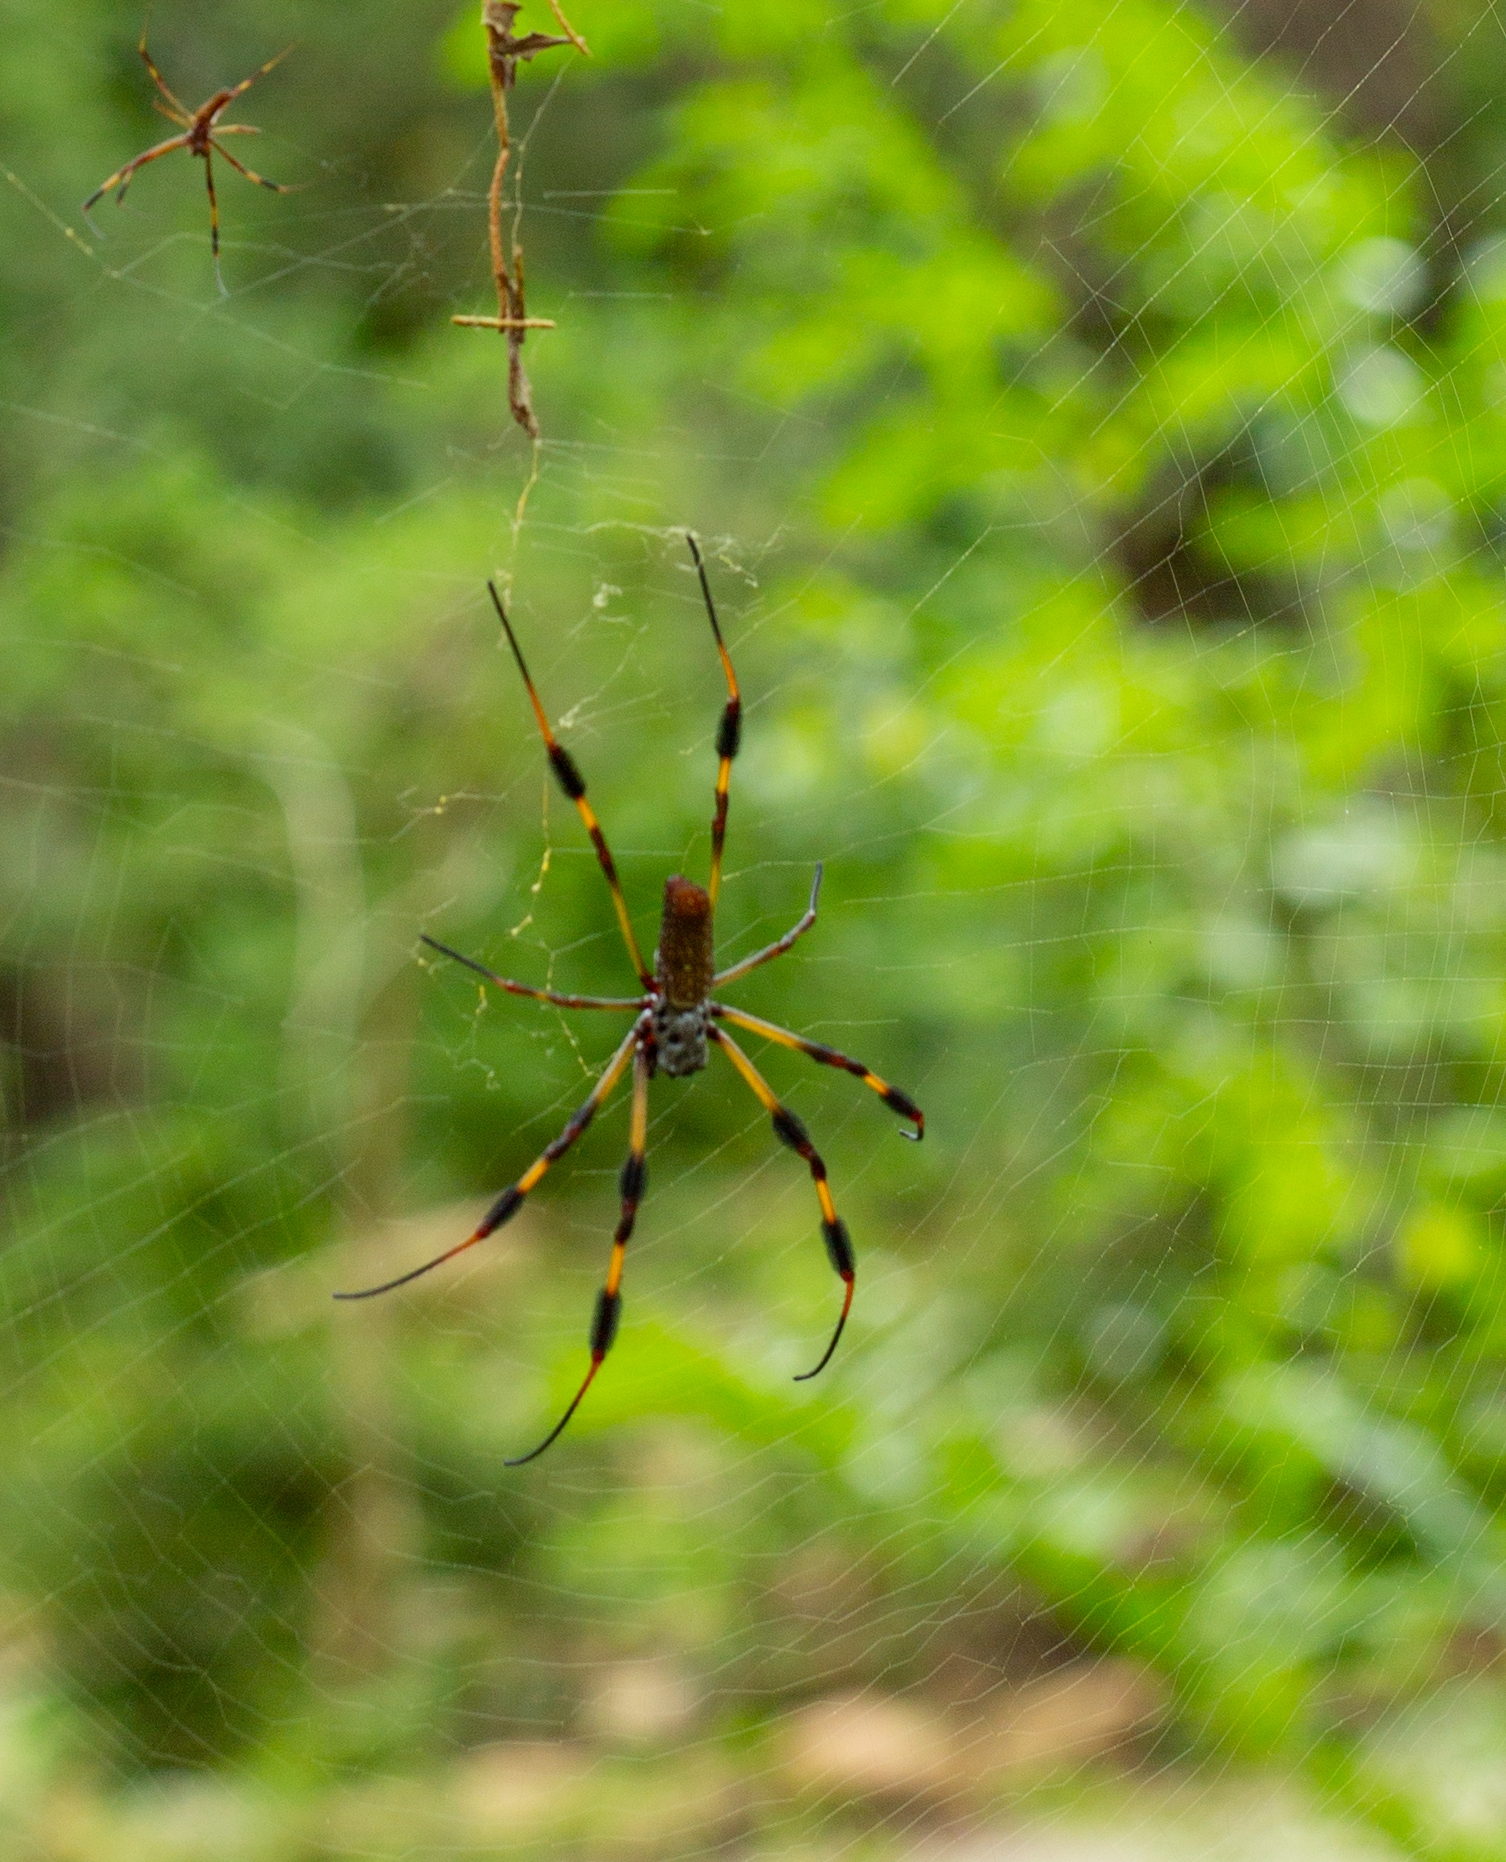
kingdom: Animalia
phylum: Arthropoda
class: Arachnida
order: Araneae
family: Araneidae
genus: Trichonephila
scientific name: Trichonephila clavipes
